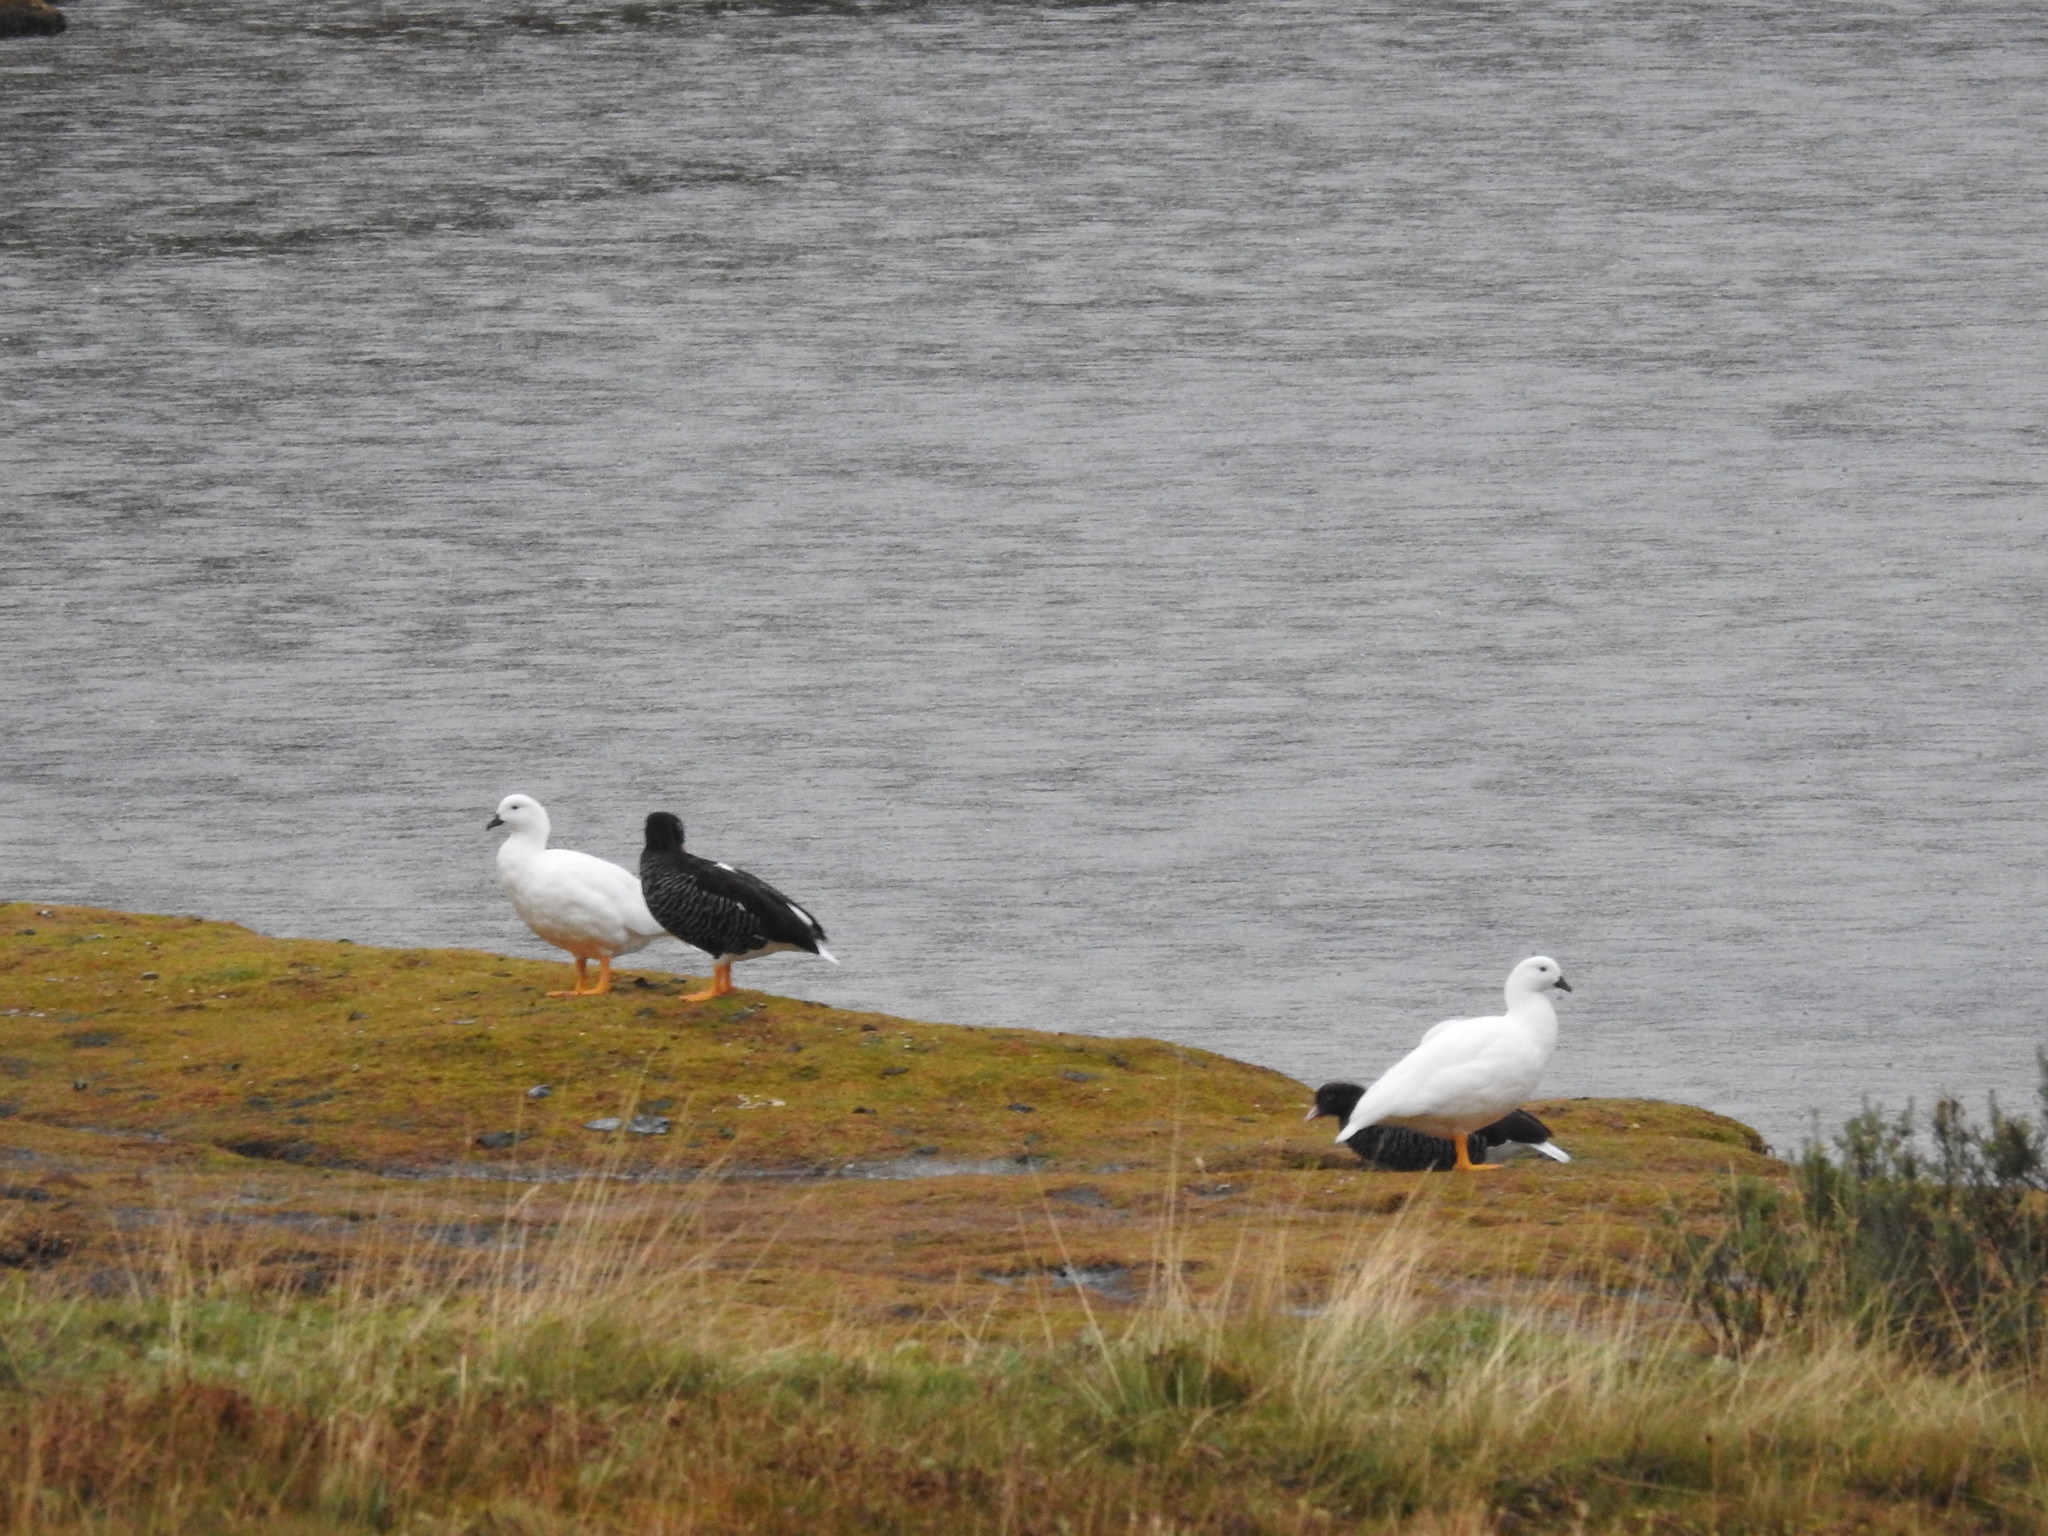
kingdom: Animalia
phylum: Chordata
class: Aves
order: Anseriformes
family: Anatidae
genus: Chloephaga
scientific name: Chloephaga hybrida
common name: Kelp goose
